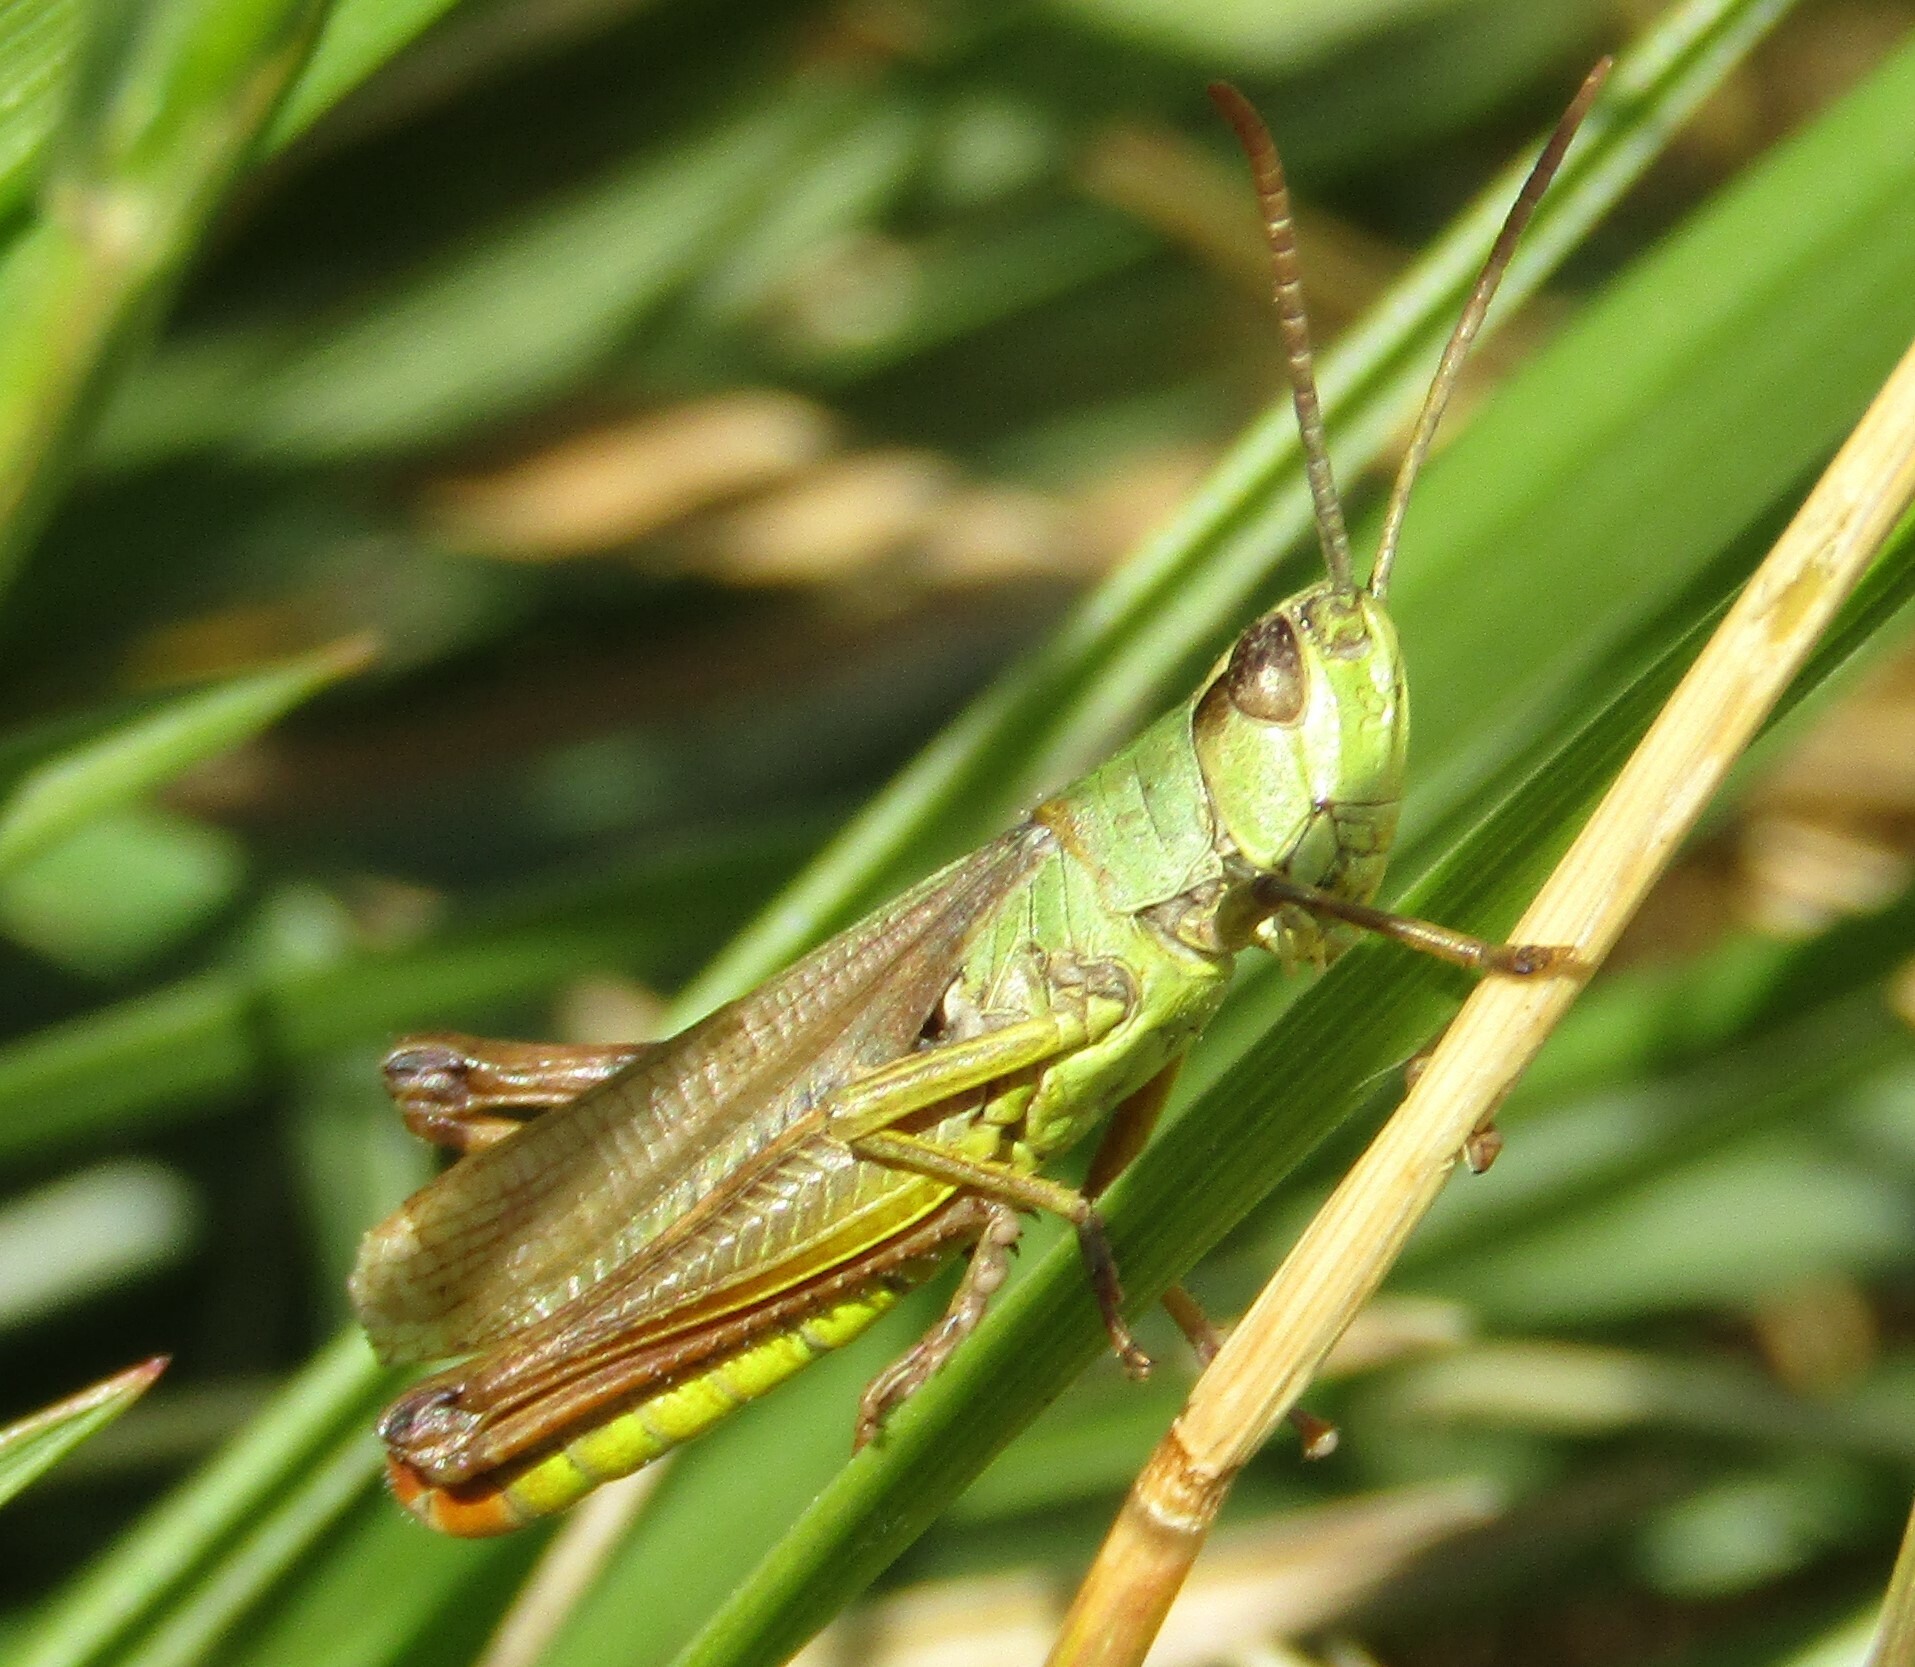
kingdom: Animalia
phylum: Arthropoda
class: Insecta
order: Orthoptera
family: Acrididae
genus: Pseudochorthippus
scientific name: Pseudochorthippus parallelus
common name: Meadow grasshopper
